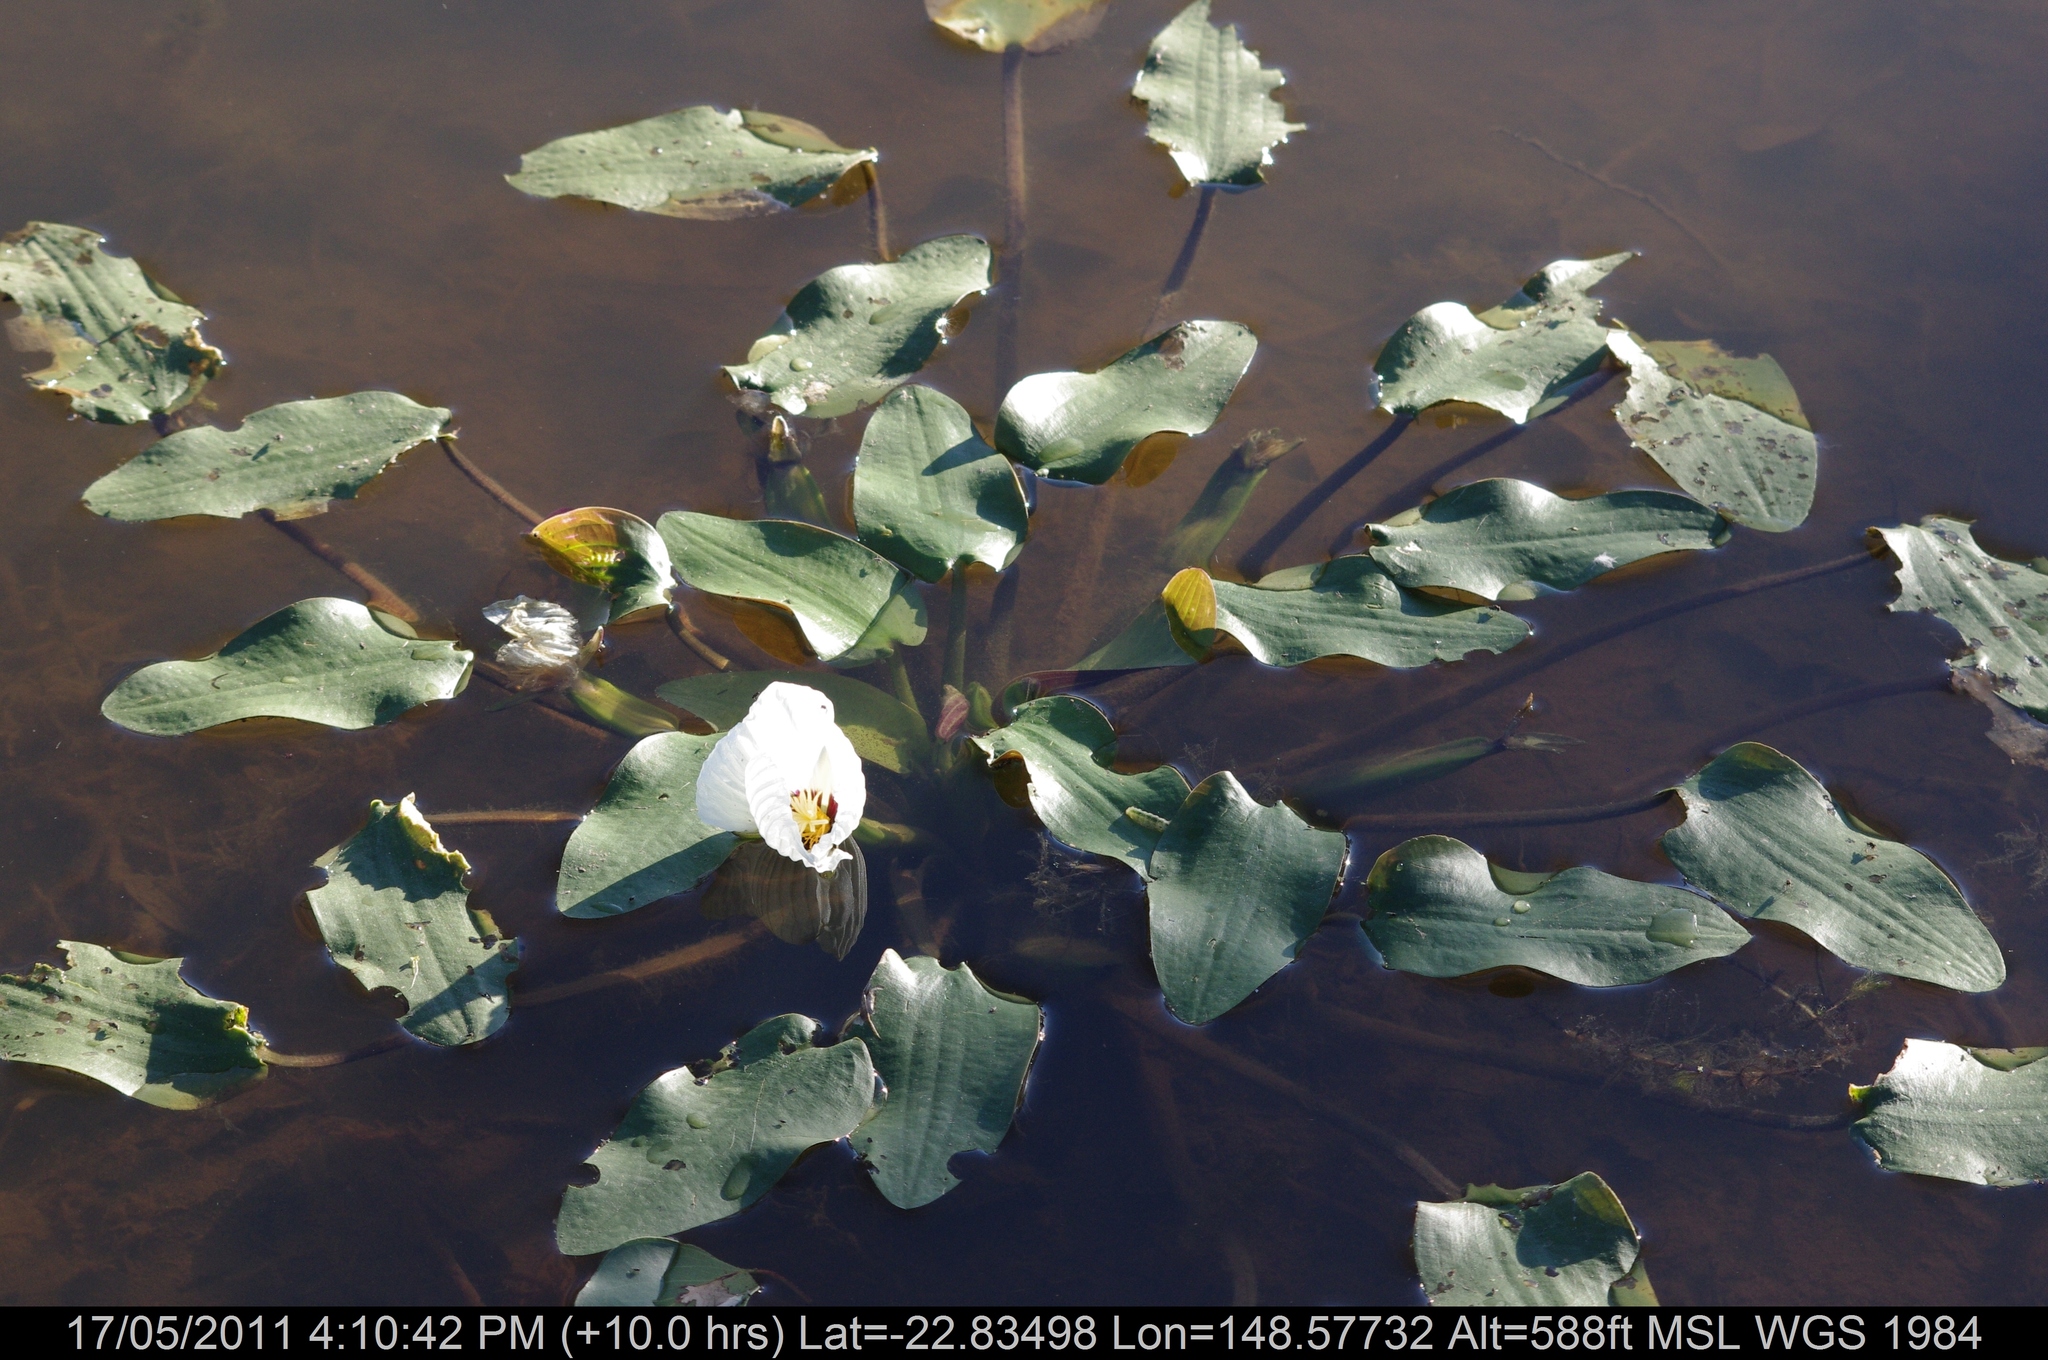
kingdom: Plantae
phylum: Tracheophyta
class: Liliopsida
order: Alismatales
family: Hydrocharitaceae
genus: Ottelia
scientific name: Ottelia ovalifolia
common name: Swamp-lily
